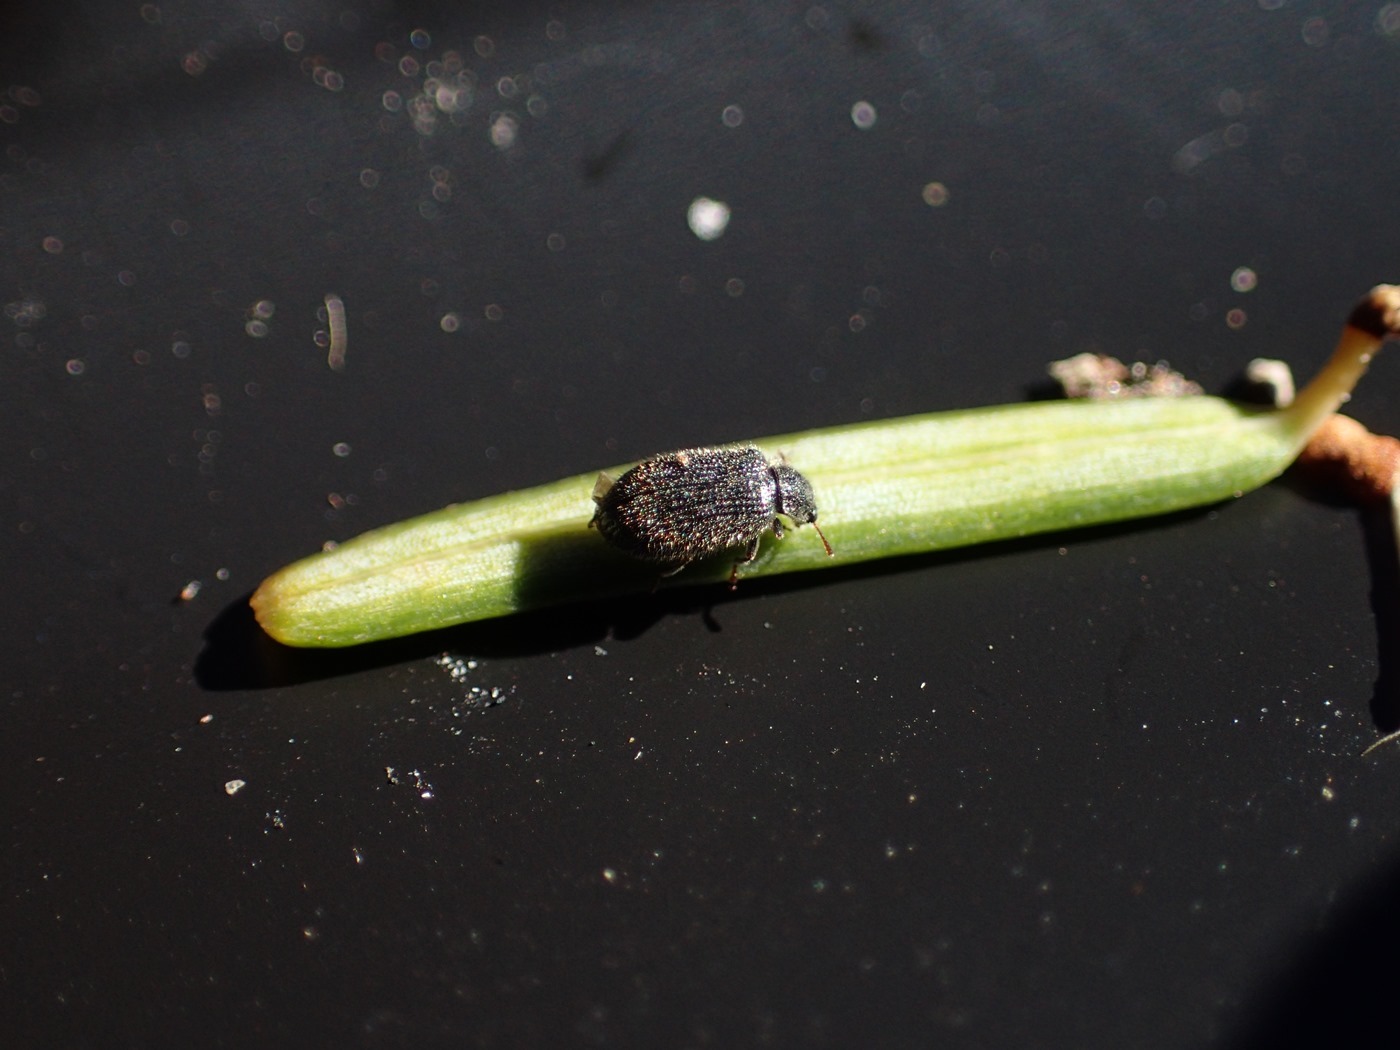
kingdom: Animalia
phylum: Arthropoda
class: Insecta
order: Coleoptera
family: Derodontidae
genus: Laricobius
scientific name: Laricobius nigrinus
